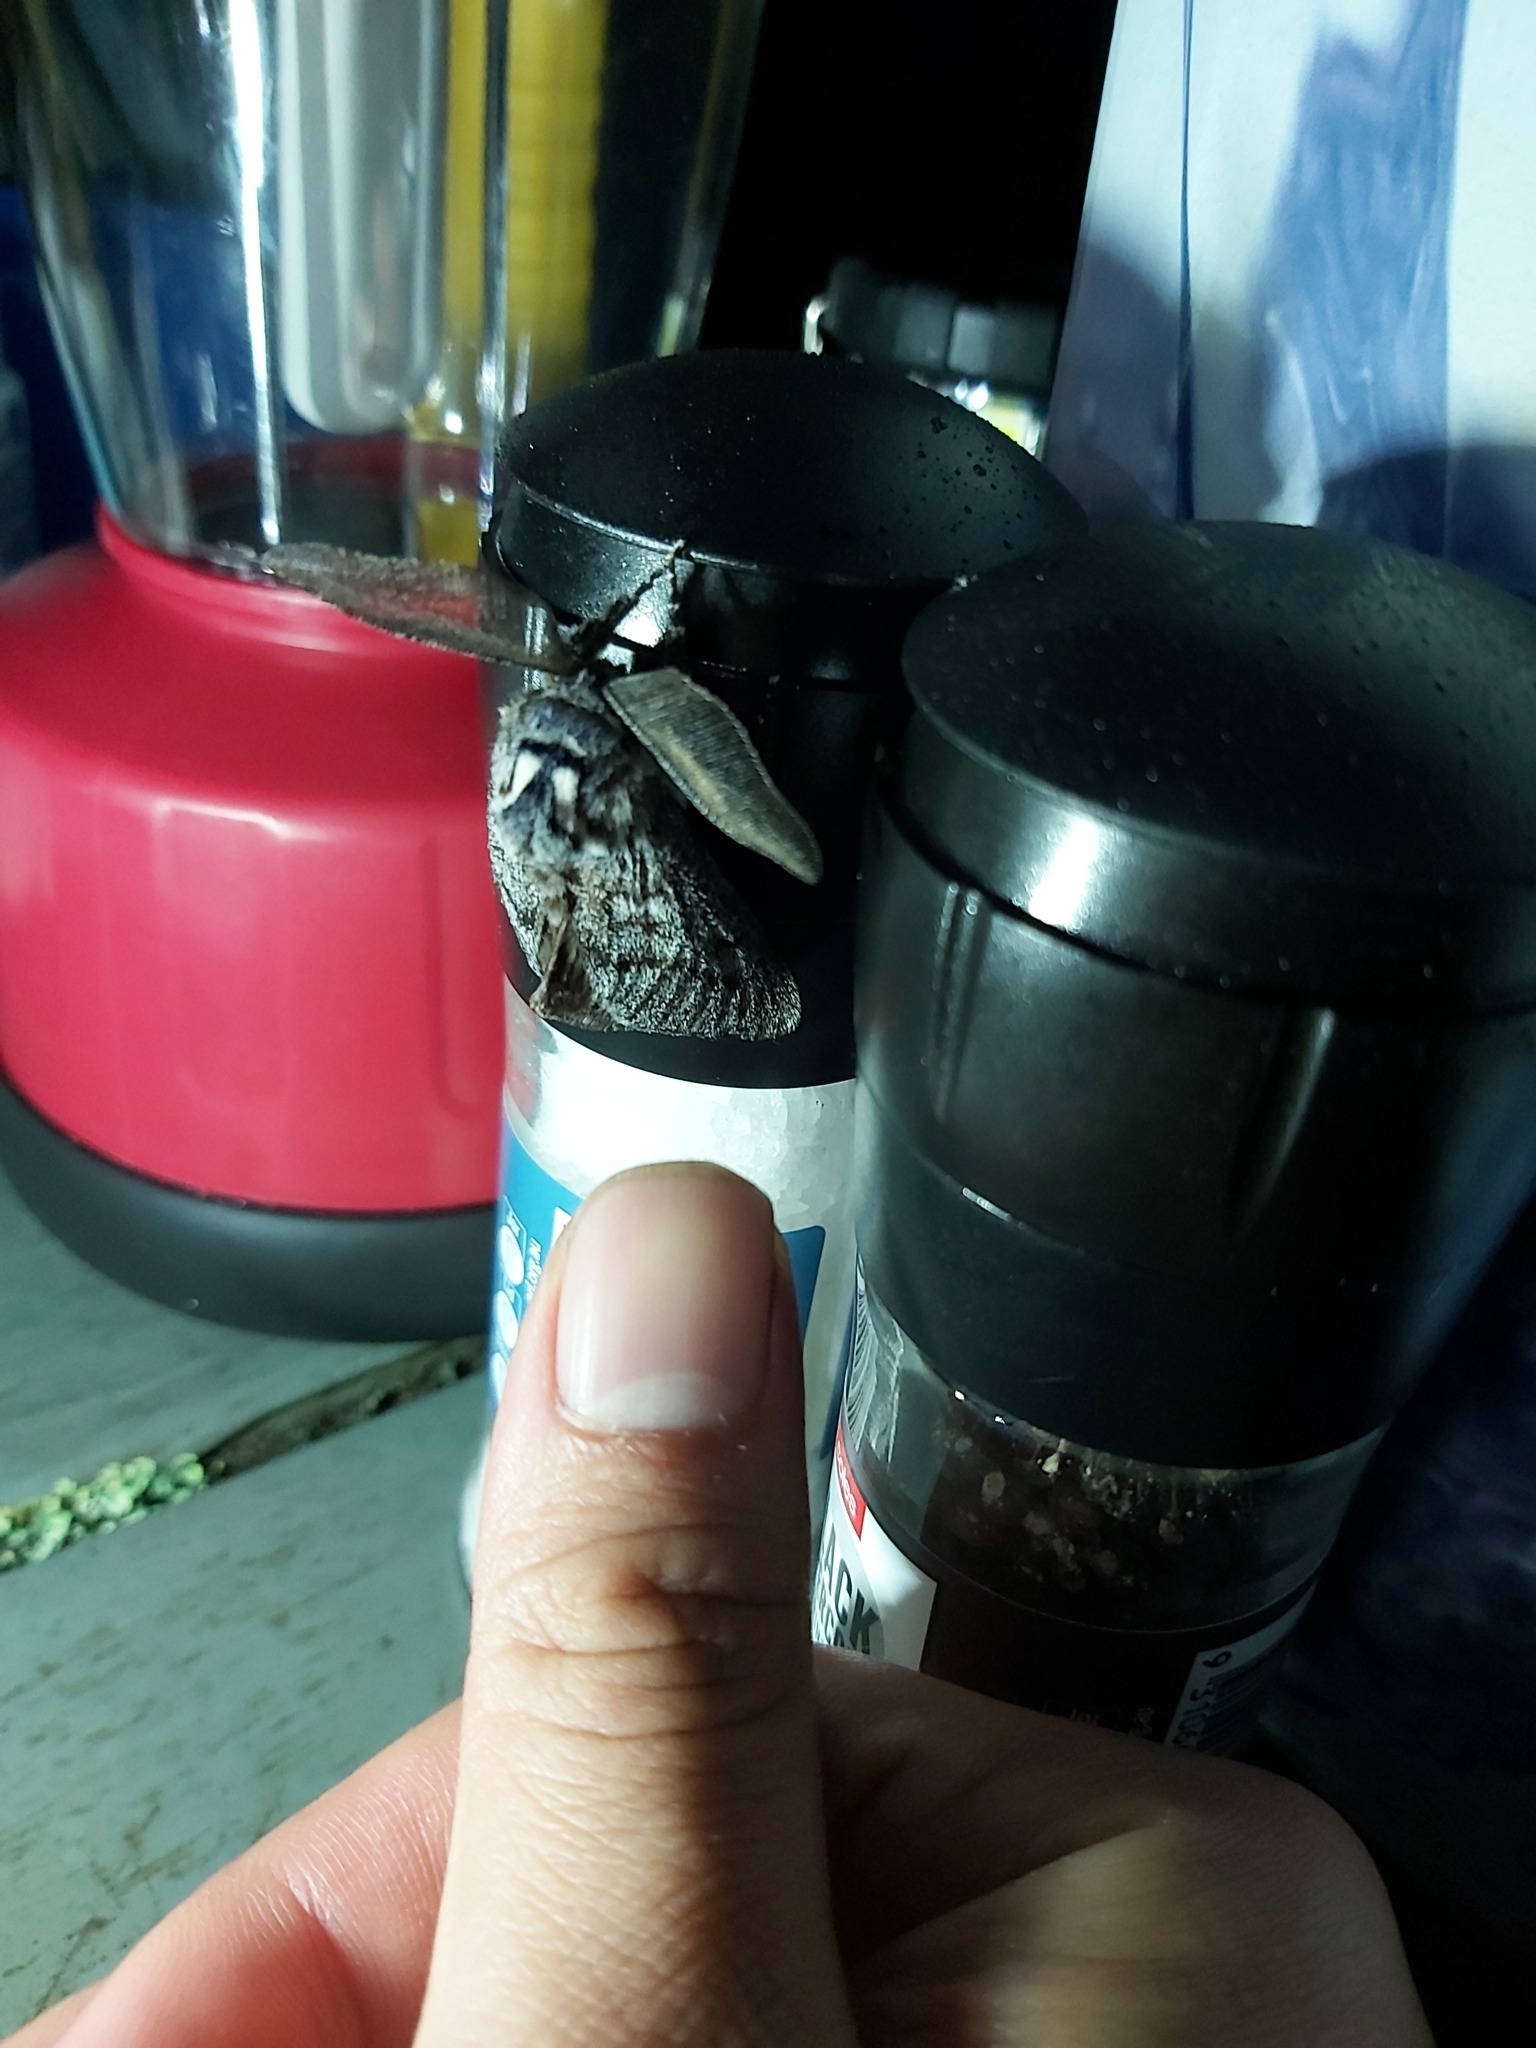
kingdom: Animalia
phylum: Arthropoda
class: Insecta
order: Lepidoptera
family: Cossidae
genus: Ptilomacra
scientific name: Ptilomacra senex
